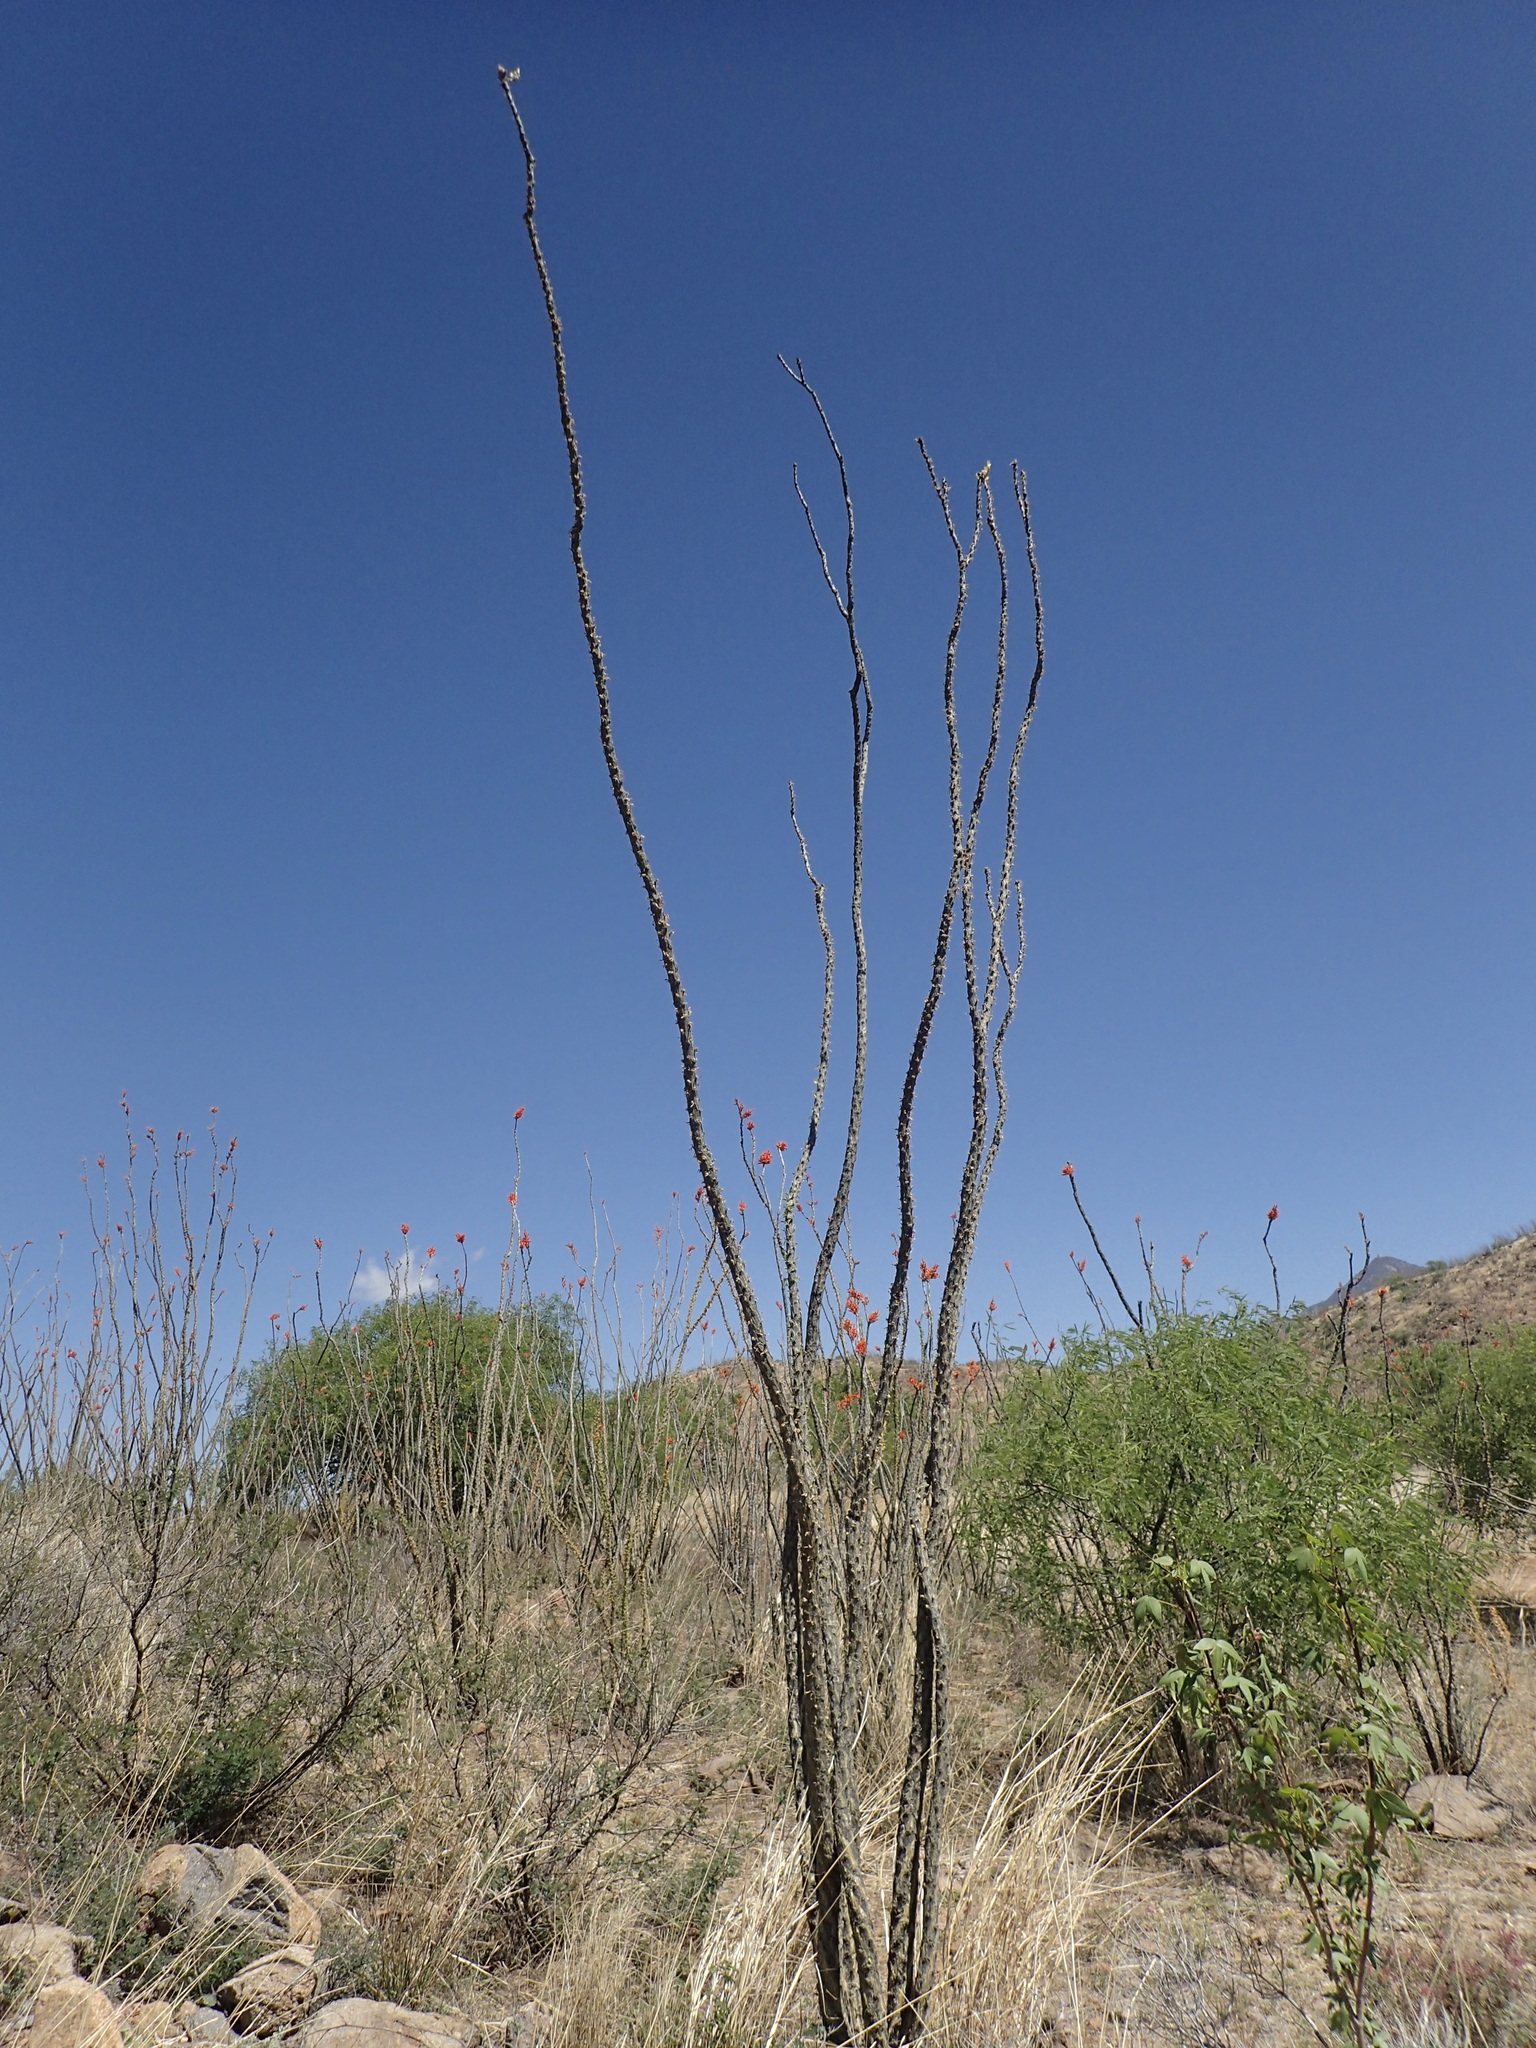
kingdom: Plantae
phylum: Tracheophyta
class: Magnoliopsida
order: Ericales
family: Fouquieriaceae
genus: Fouquieria
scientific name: Fouquieria splendens
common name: Vine-cactus
